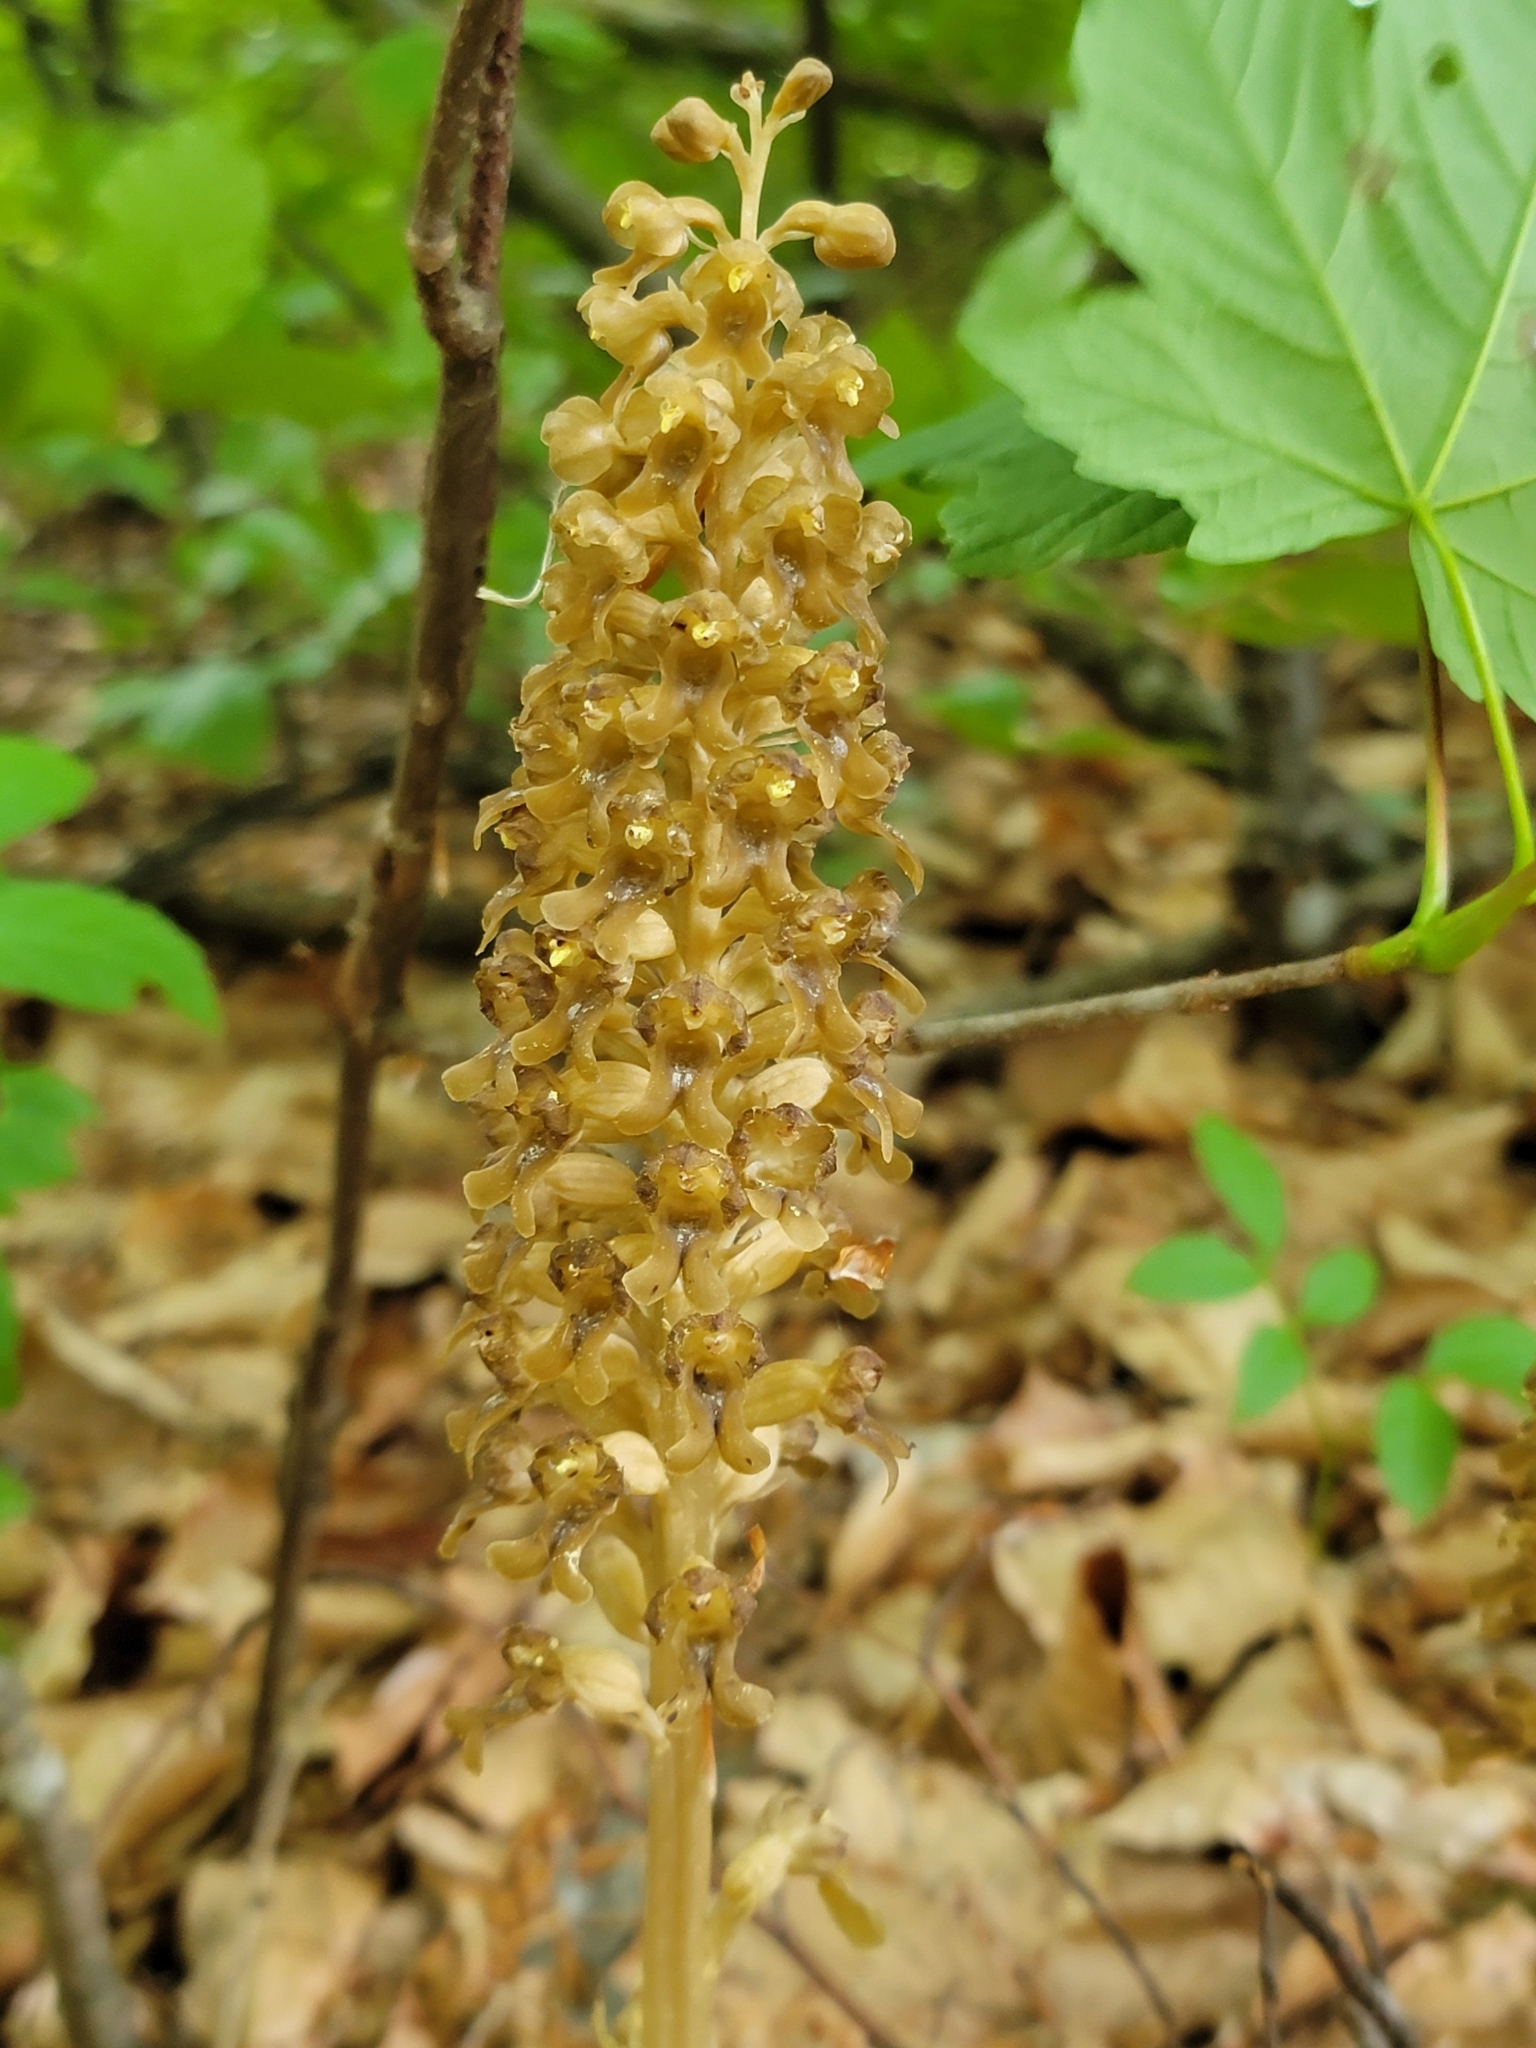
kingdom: Plantae
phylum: Tracheophyta
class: Liliopsida
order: Asparagales
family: Orchidaceae
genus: Neottia
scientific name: Neottia nidus-avis
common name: Bird's-nest orchid
